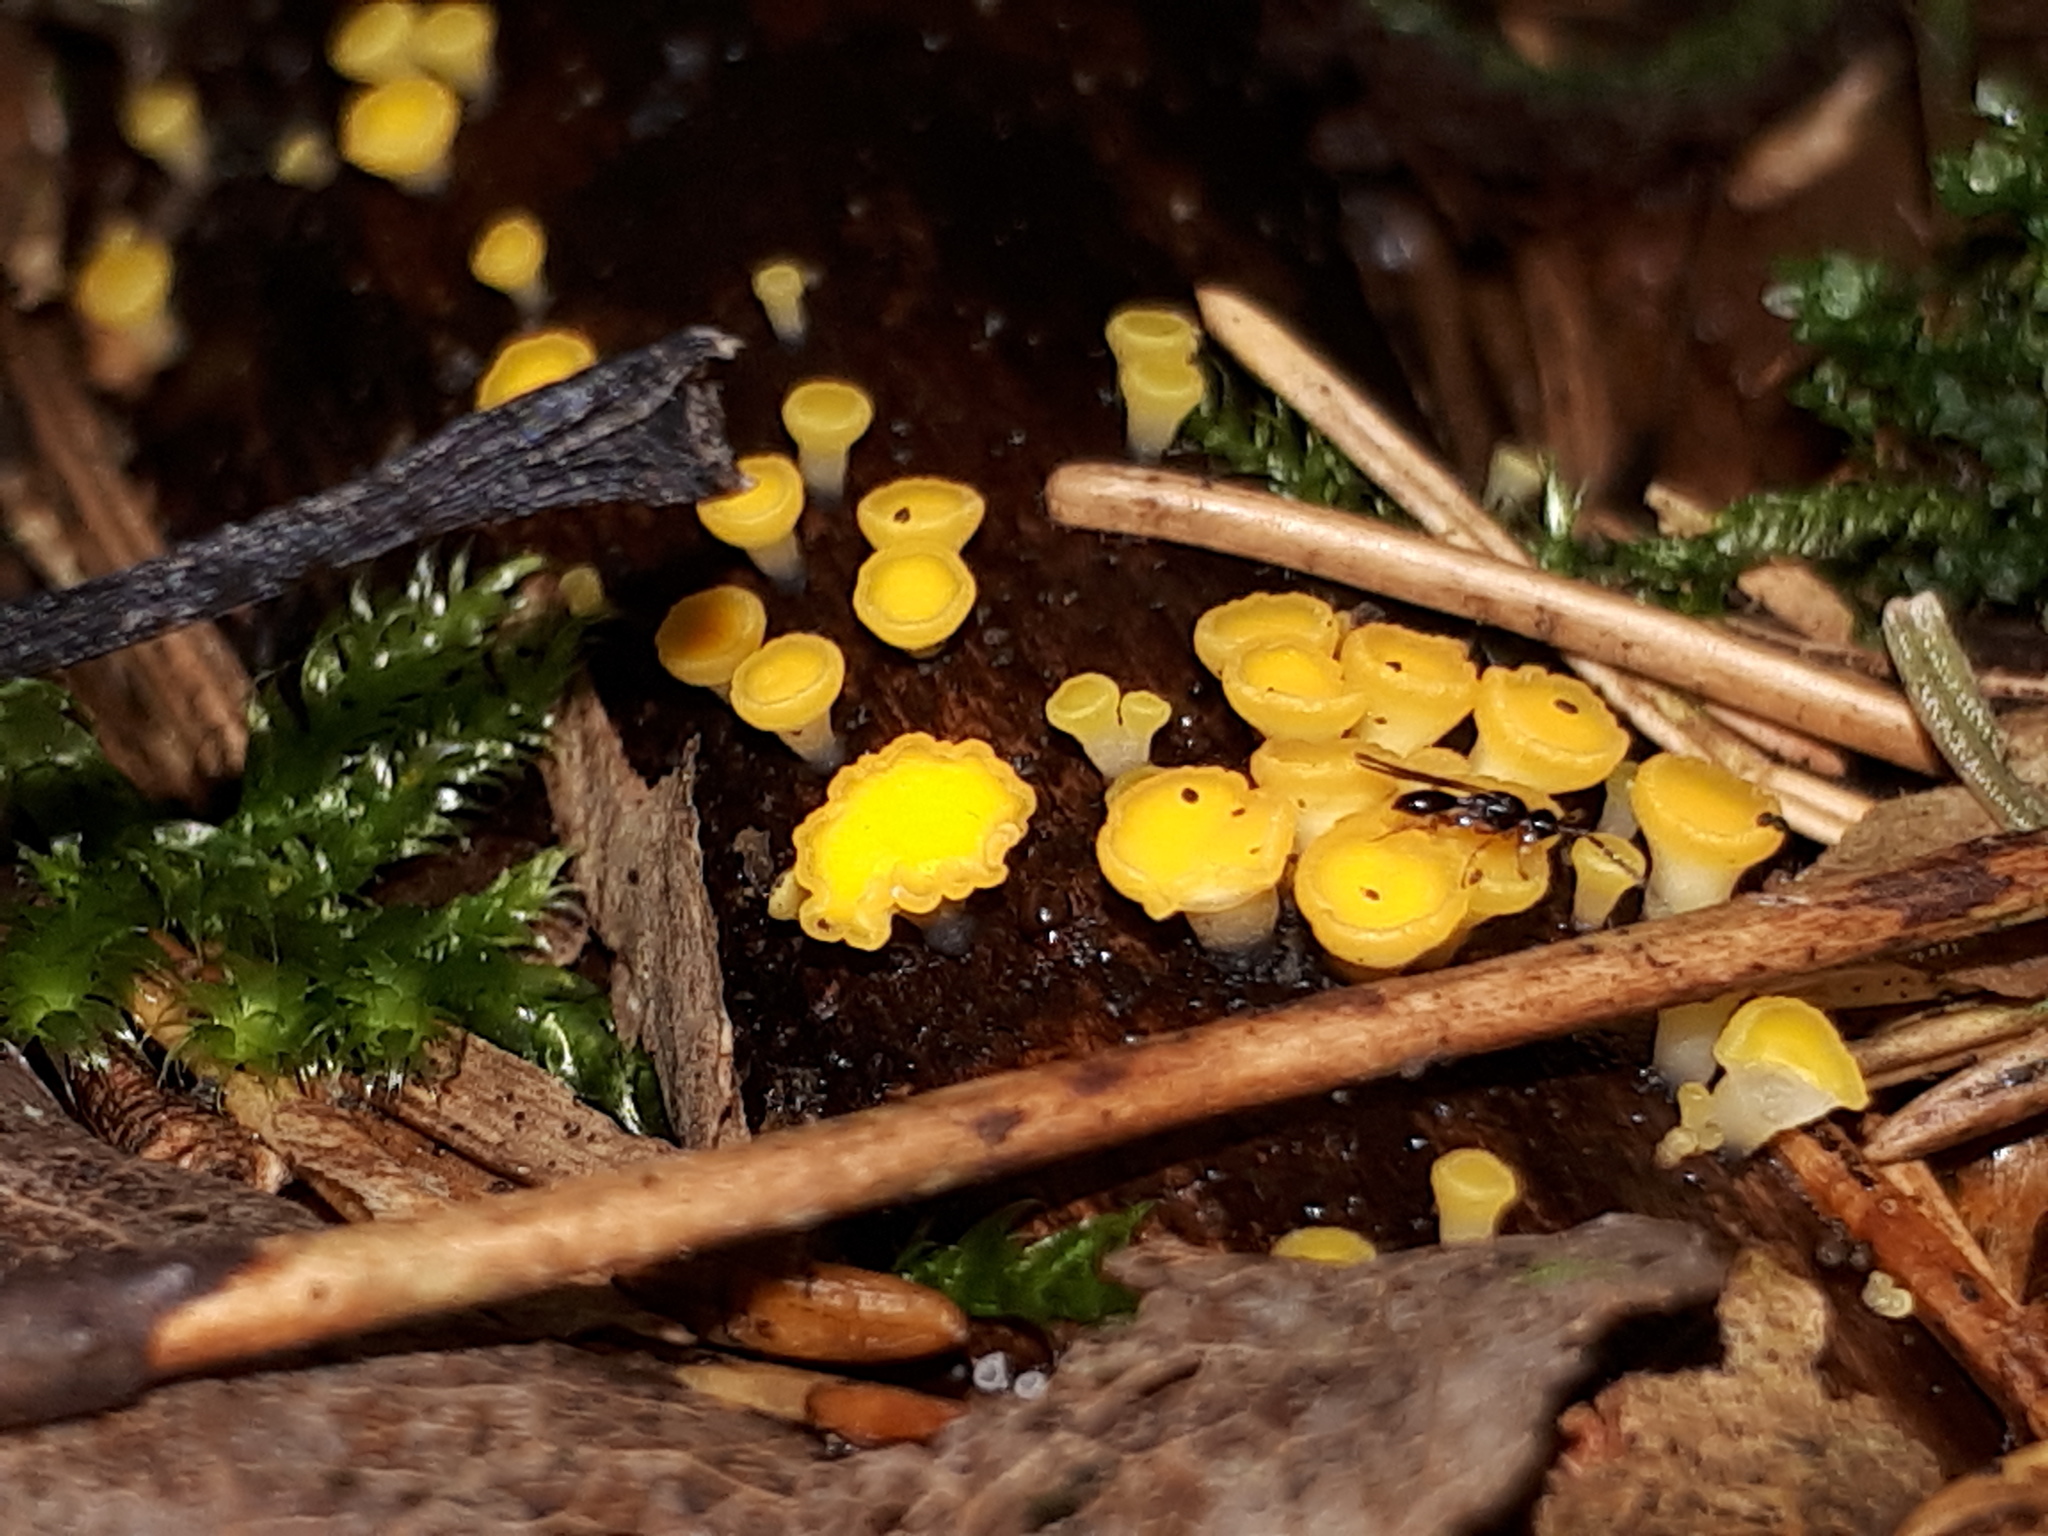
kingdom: Animalia
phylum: Arthropoda
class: Insecta
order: Hymenoptera
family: Diapriidae
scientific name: Diapriidae
